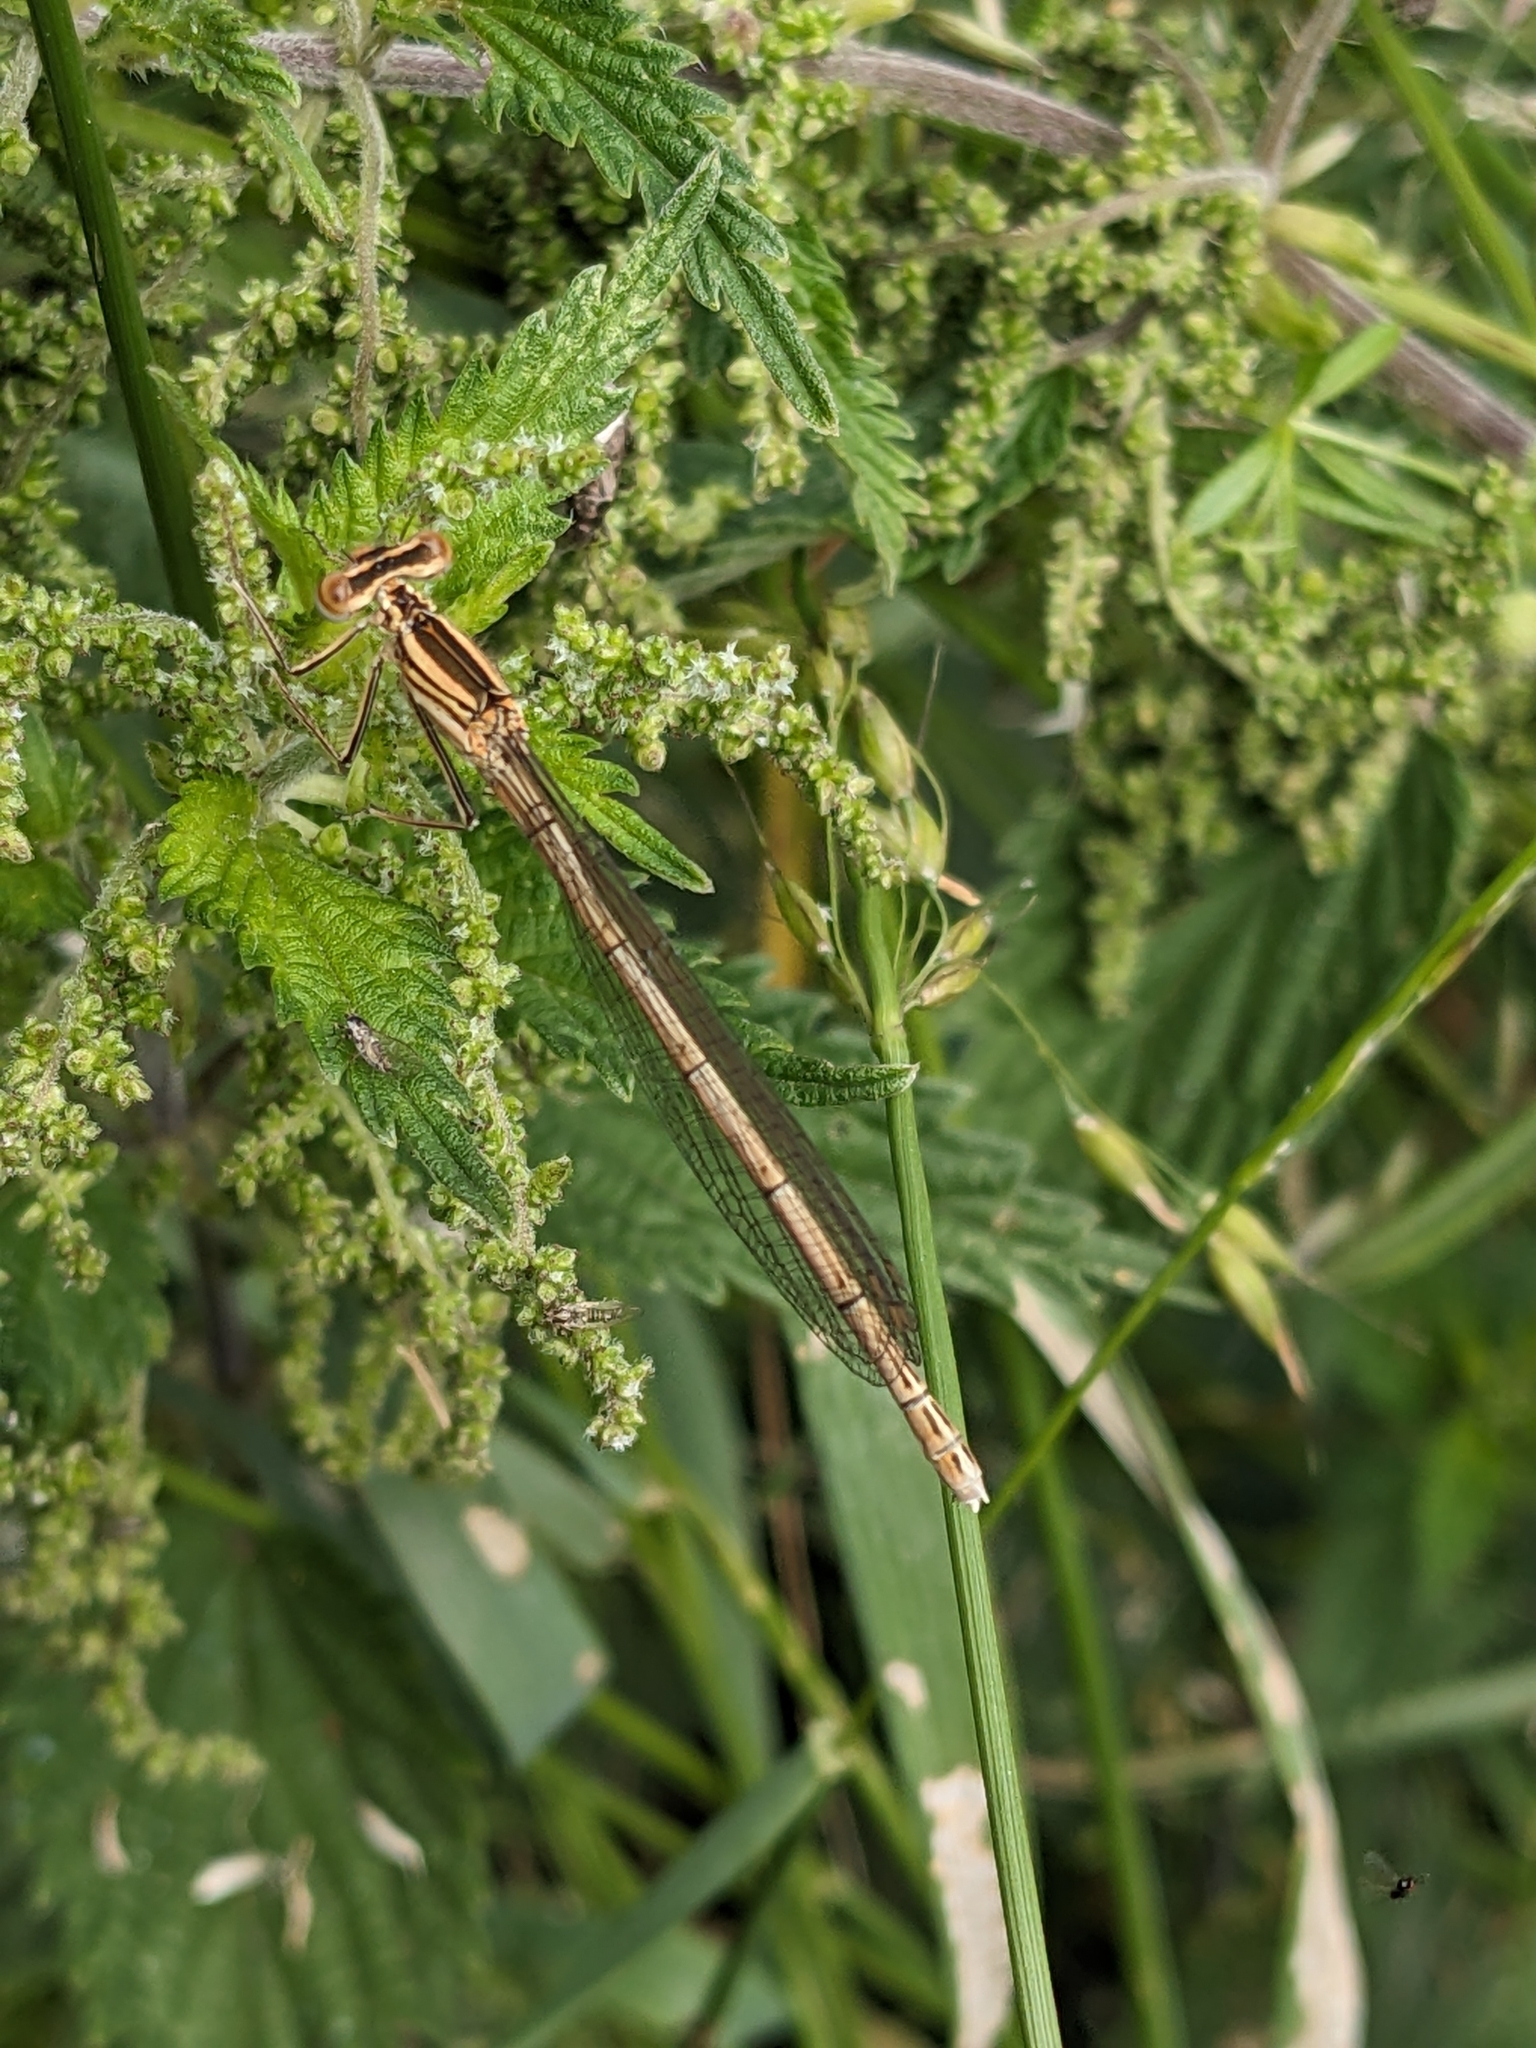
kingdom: Animalia
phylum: Arthropoda
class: Insecta
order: Odonata
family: Platycnemididae
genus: Platycnemis
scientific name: Platycnemis pennipes
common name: White-legged damselfly
